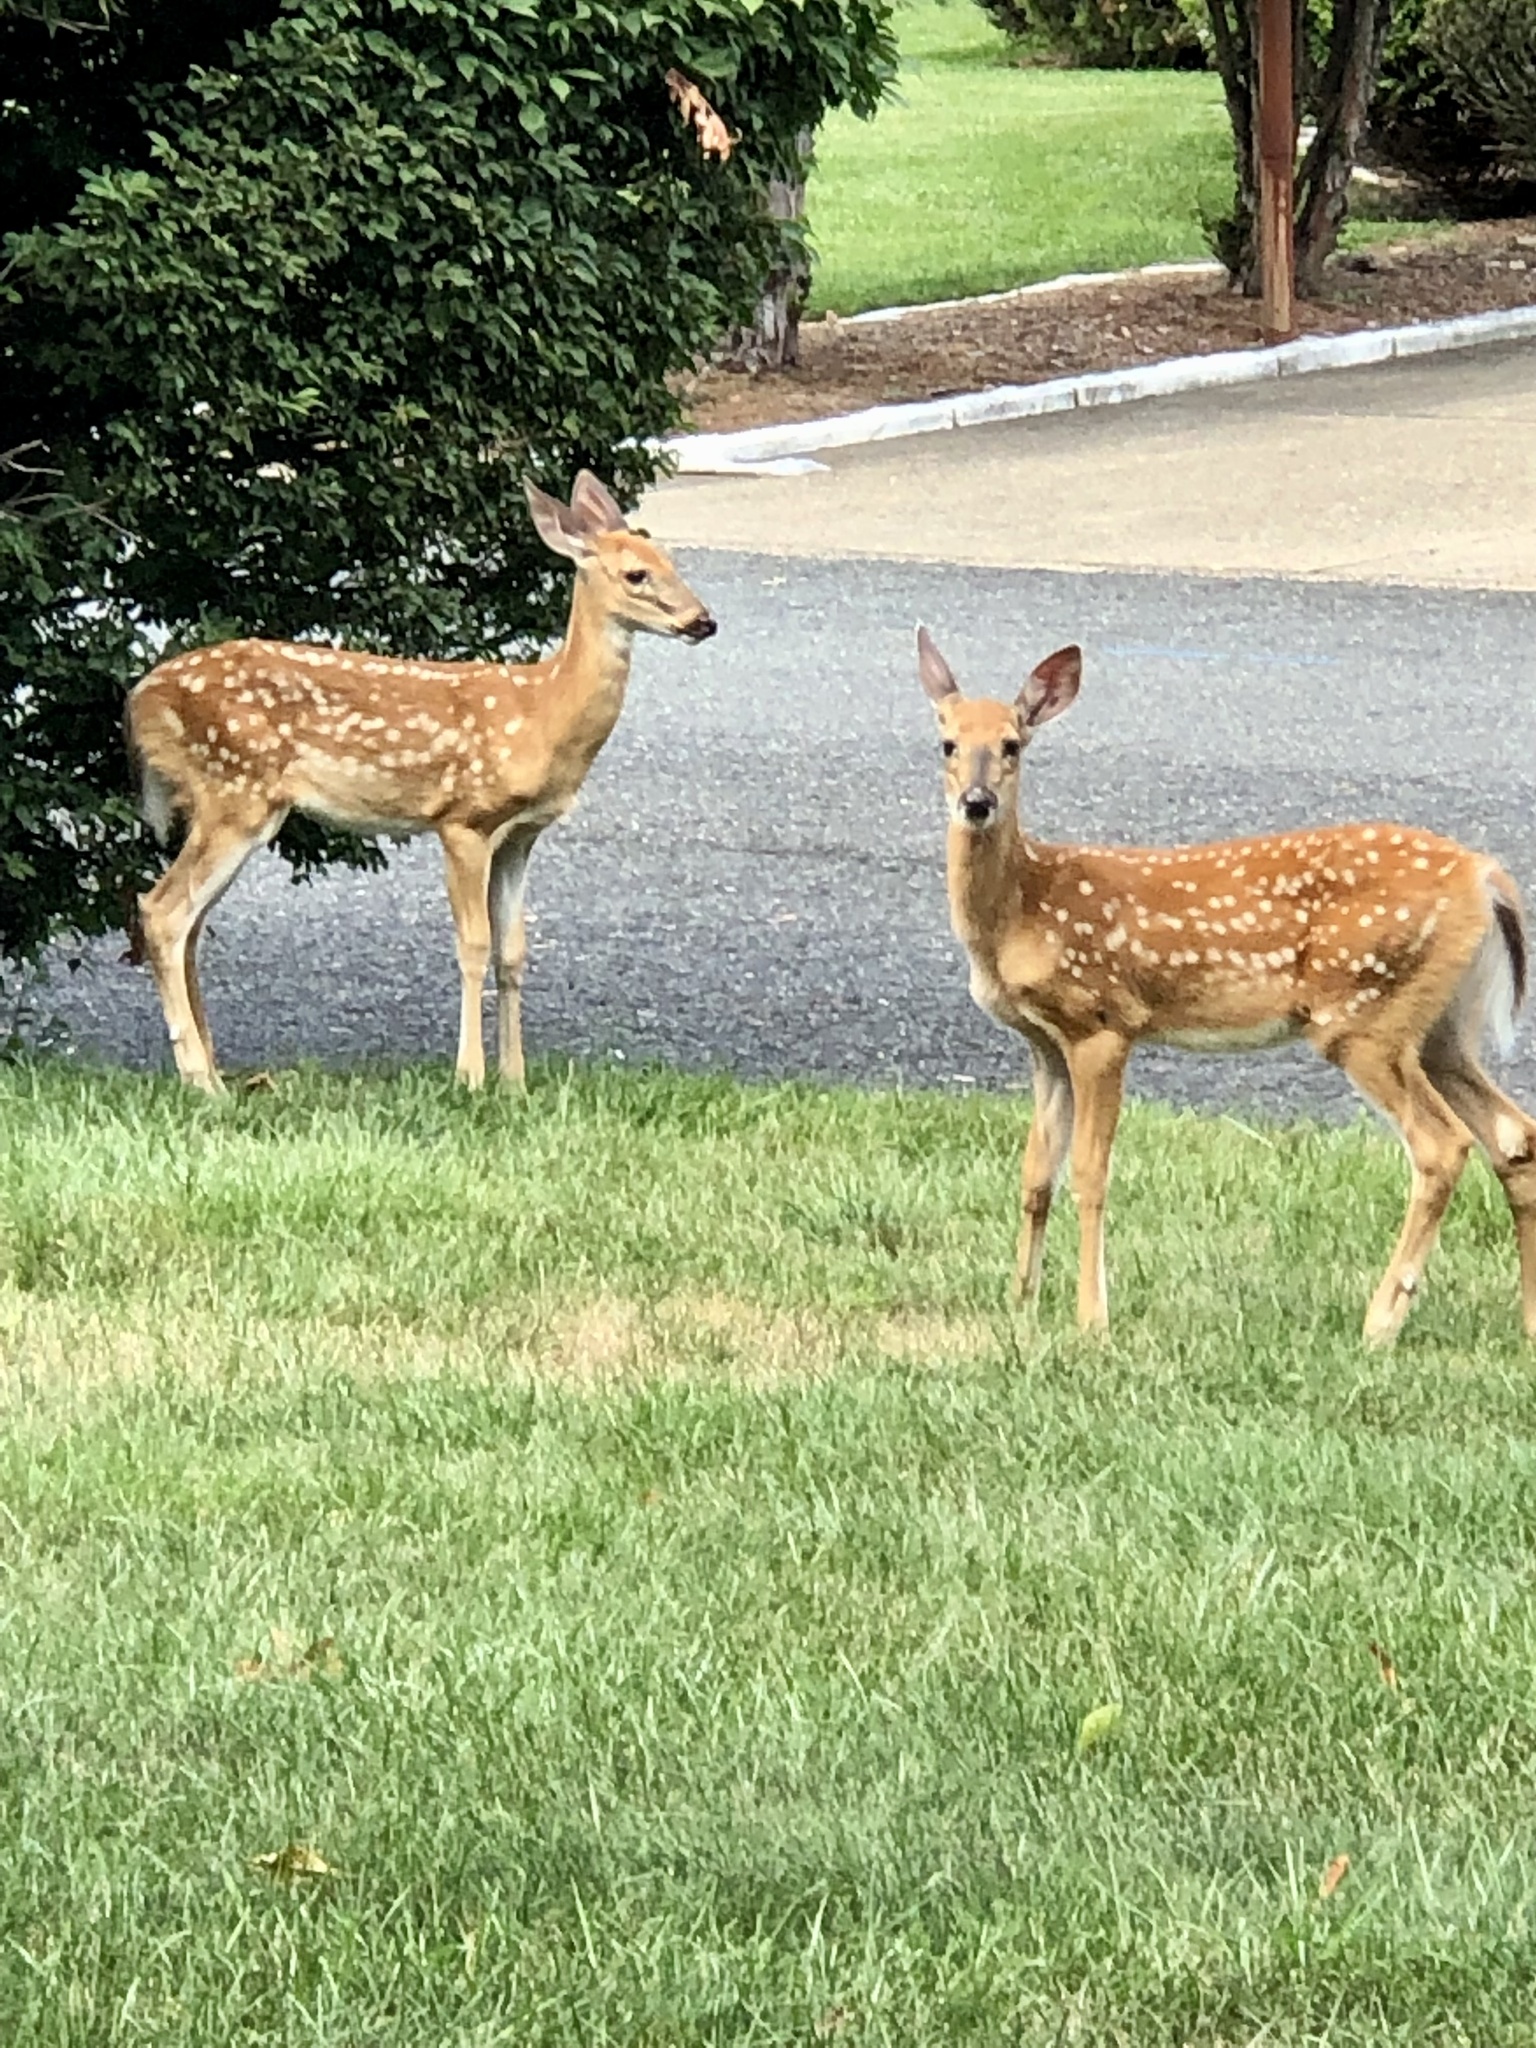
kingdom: Animalia
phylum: Chordata
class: Mammalia
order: Artiodactyla
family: Cervidae
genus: Odocoileus
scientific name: Odocoileus virginianus
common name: White-tailed deer
